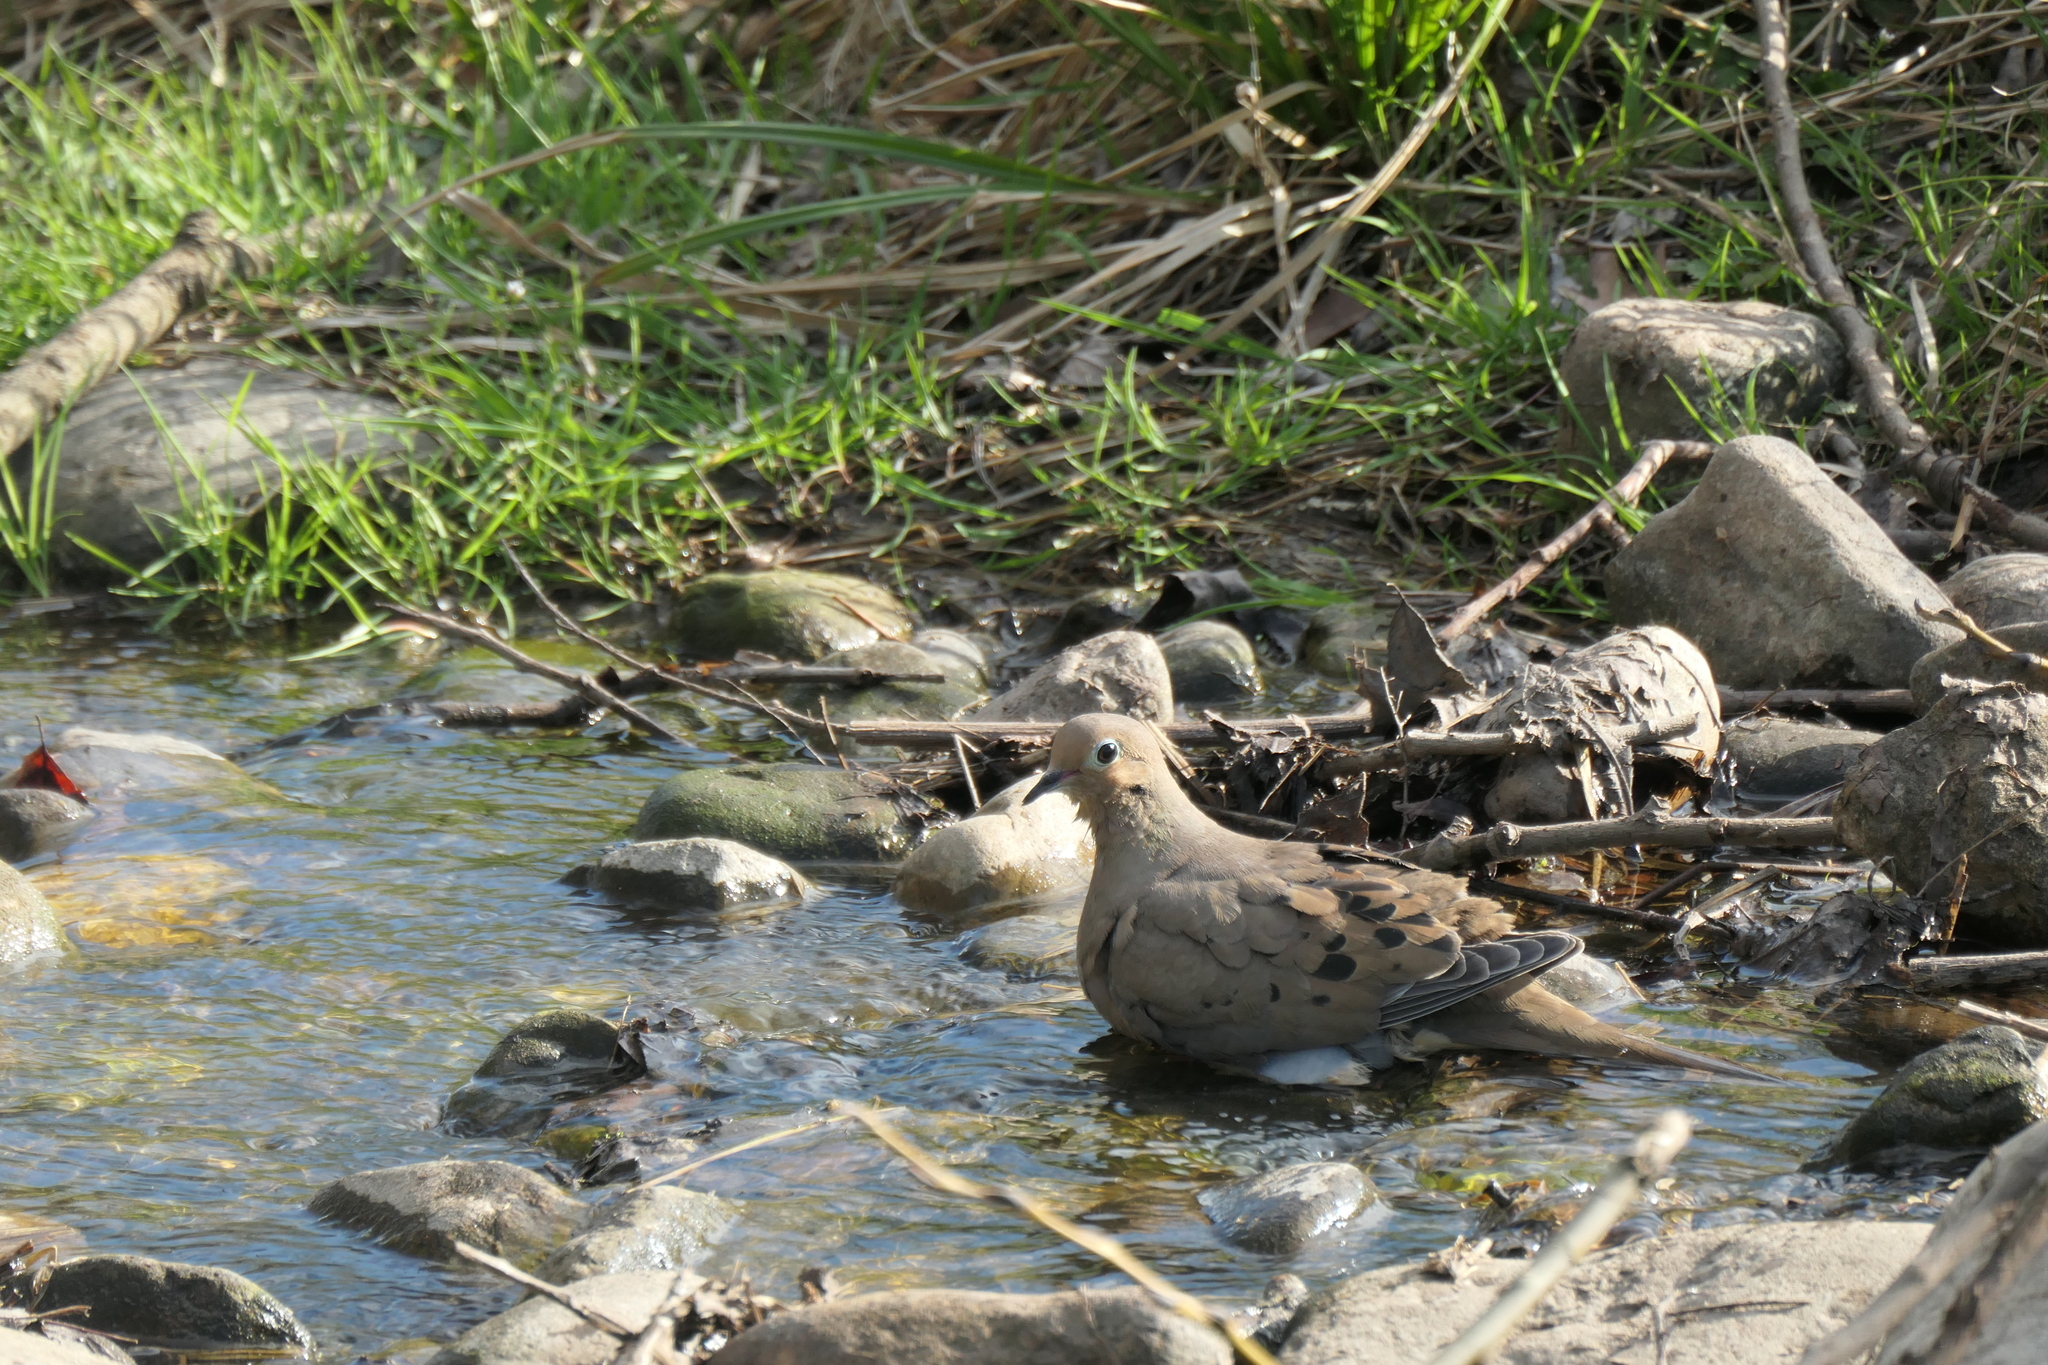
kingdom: Animalia
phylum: Chordata
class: Aves
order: Columbiformes
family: Columbidae
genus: Zenaida
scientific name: Zenaida macroura
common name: Mourning dove
